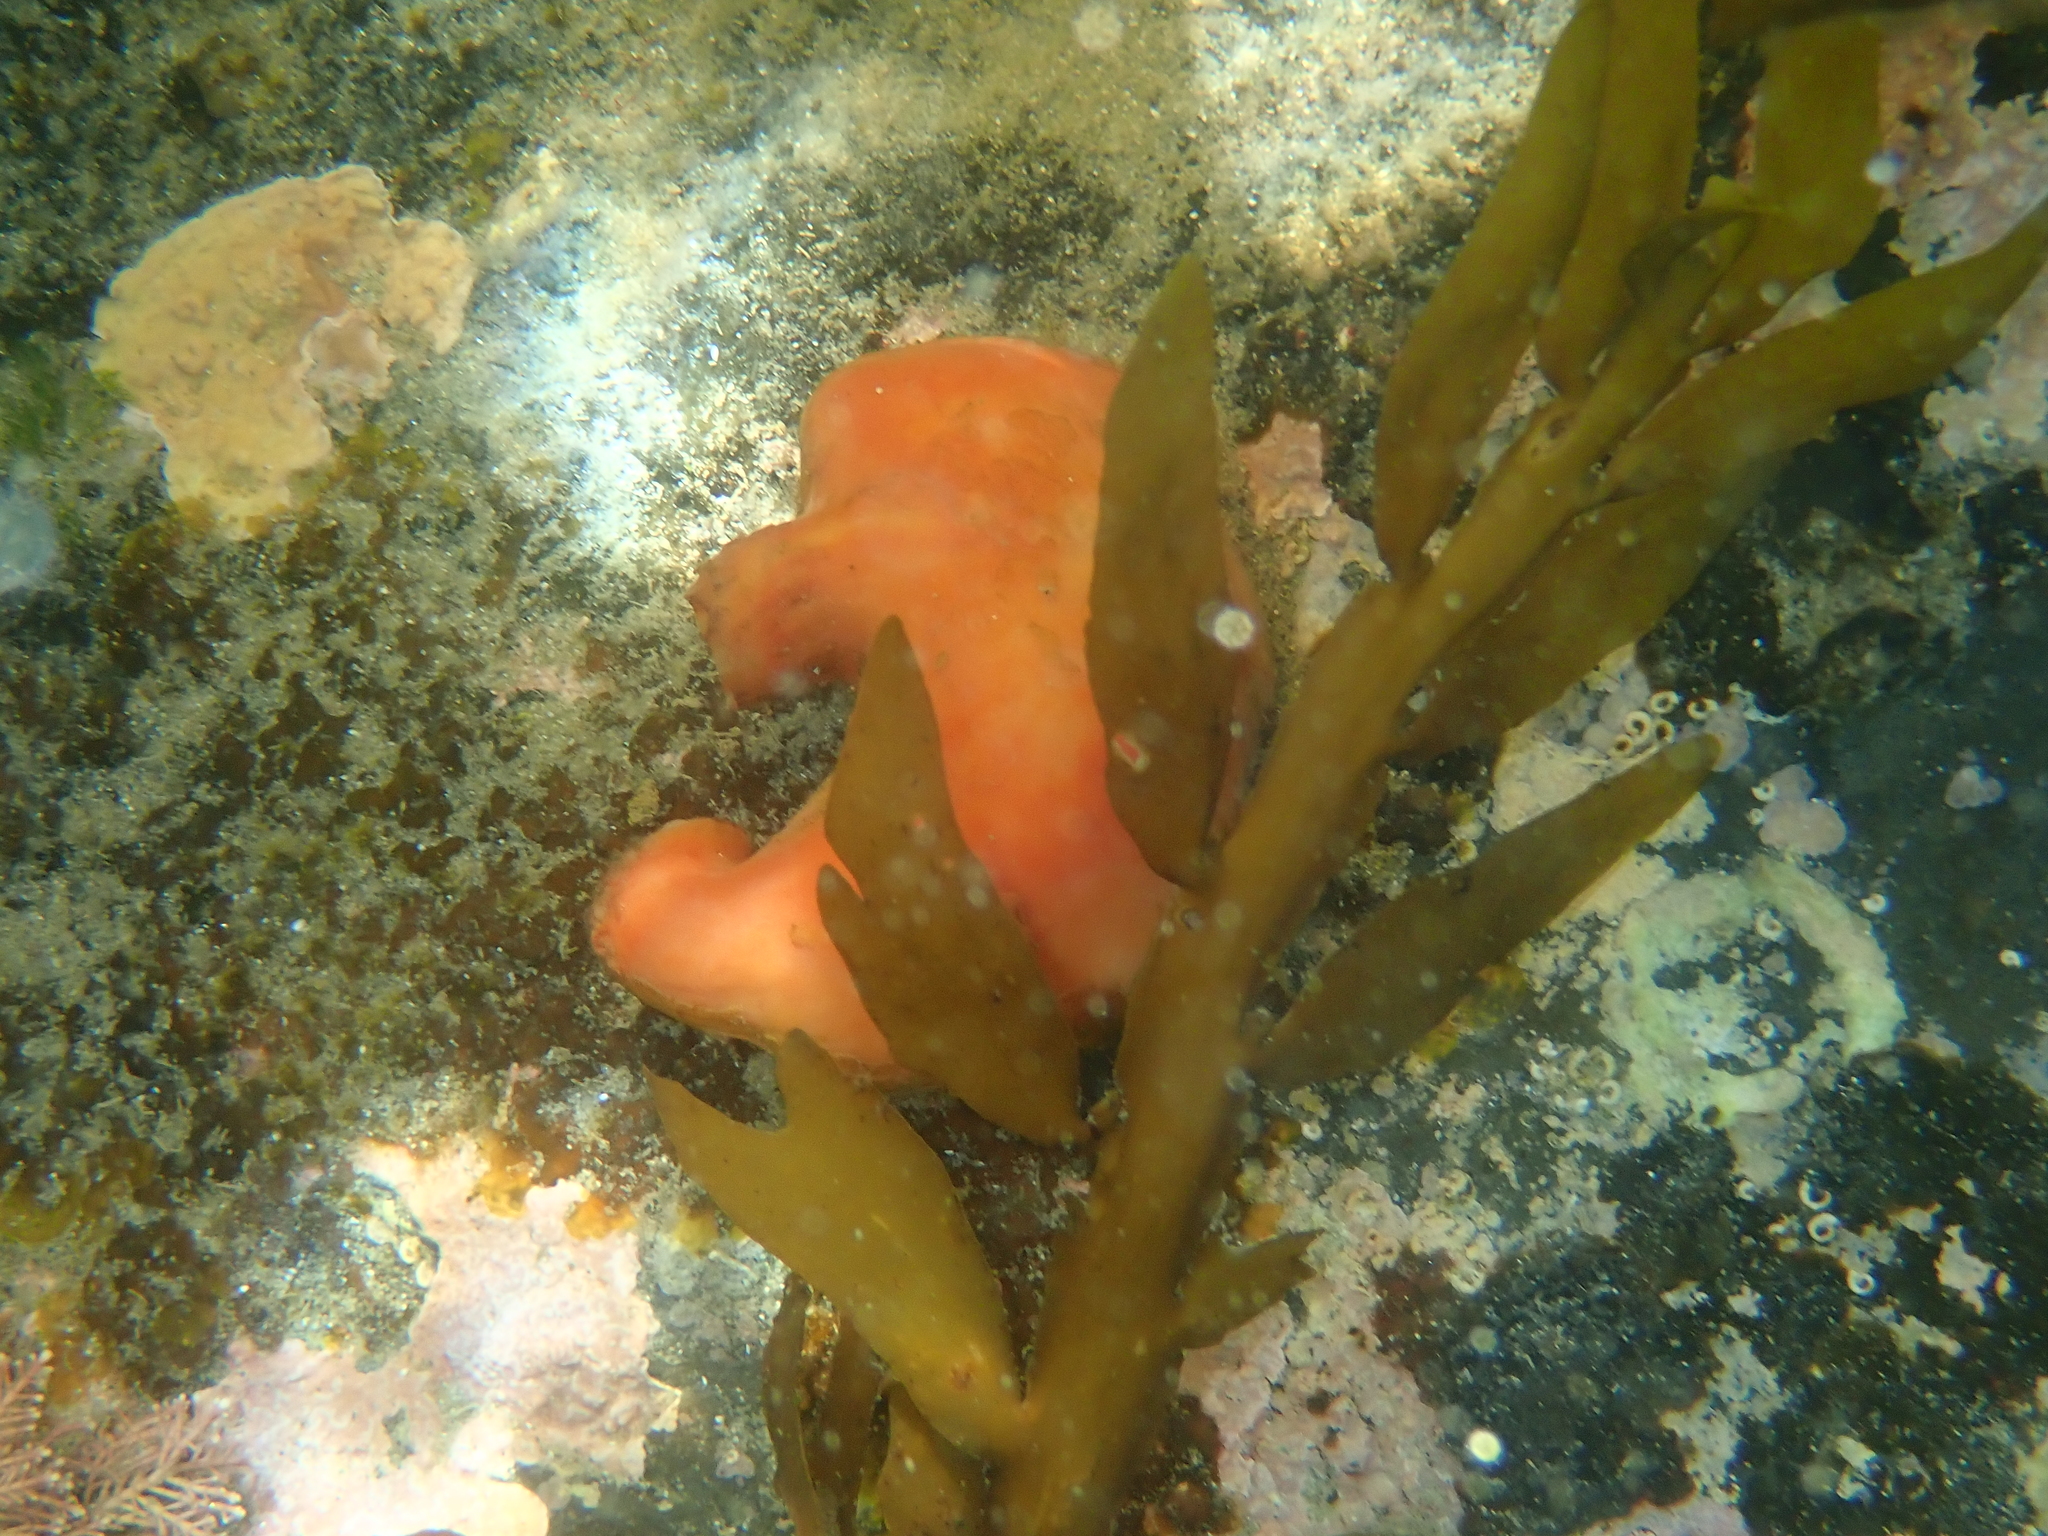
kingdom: Animalia
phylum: Chordata
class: Ascidiacea
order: Stolidobranchia
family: Styelidae
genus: Cnemidocarpa
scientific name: Cnemidocarpa bicornuta
